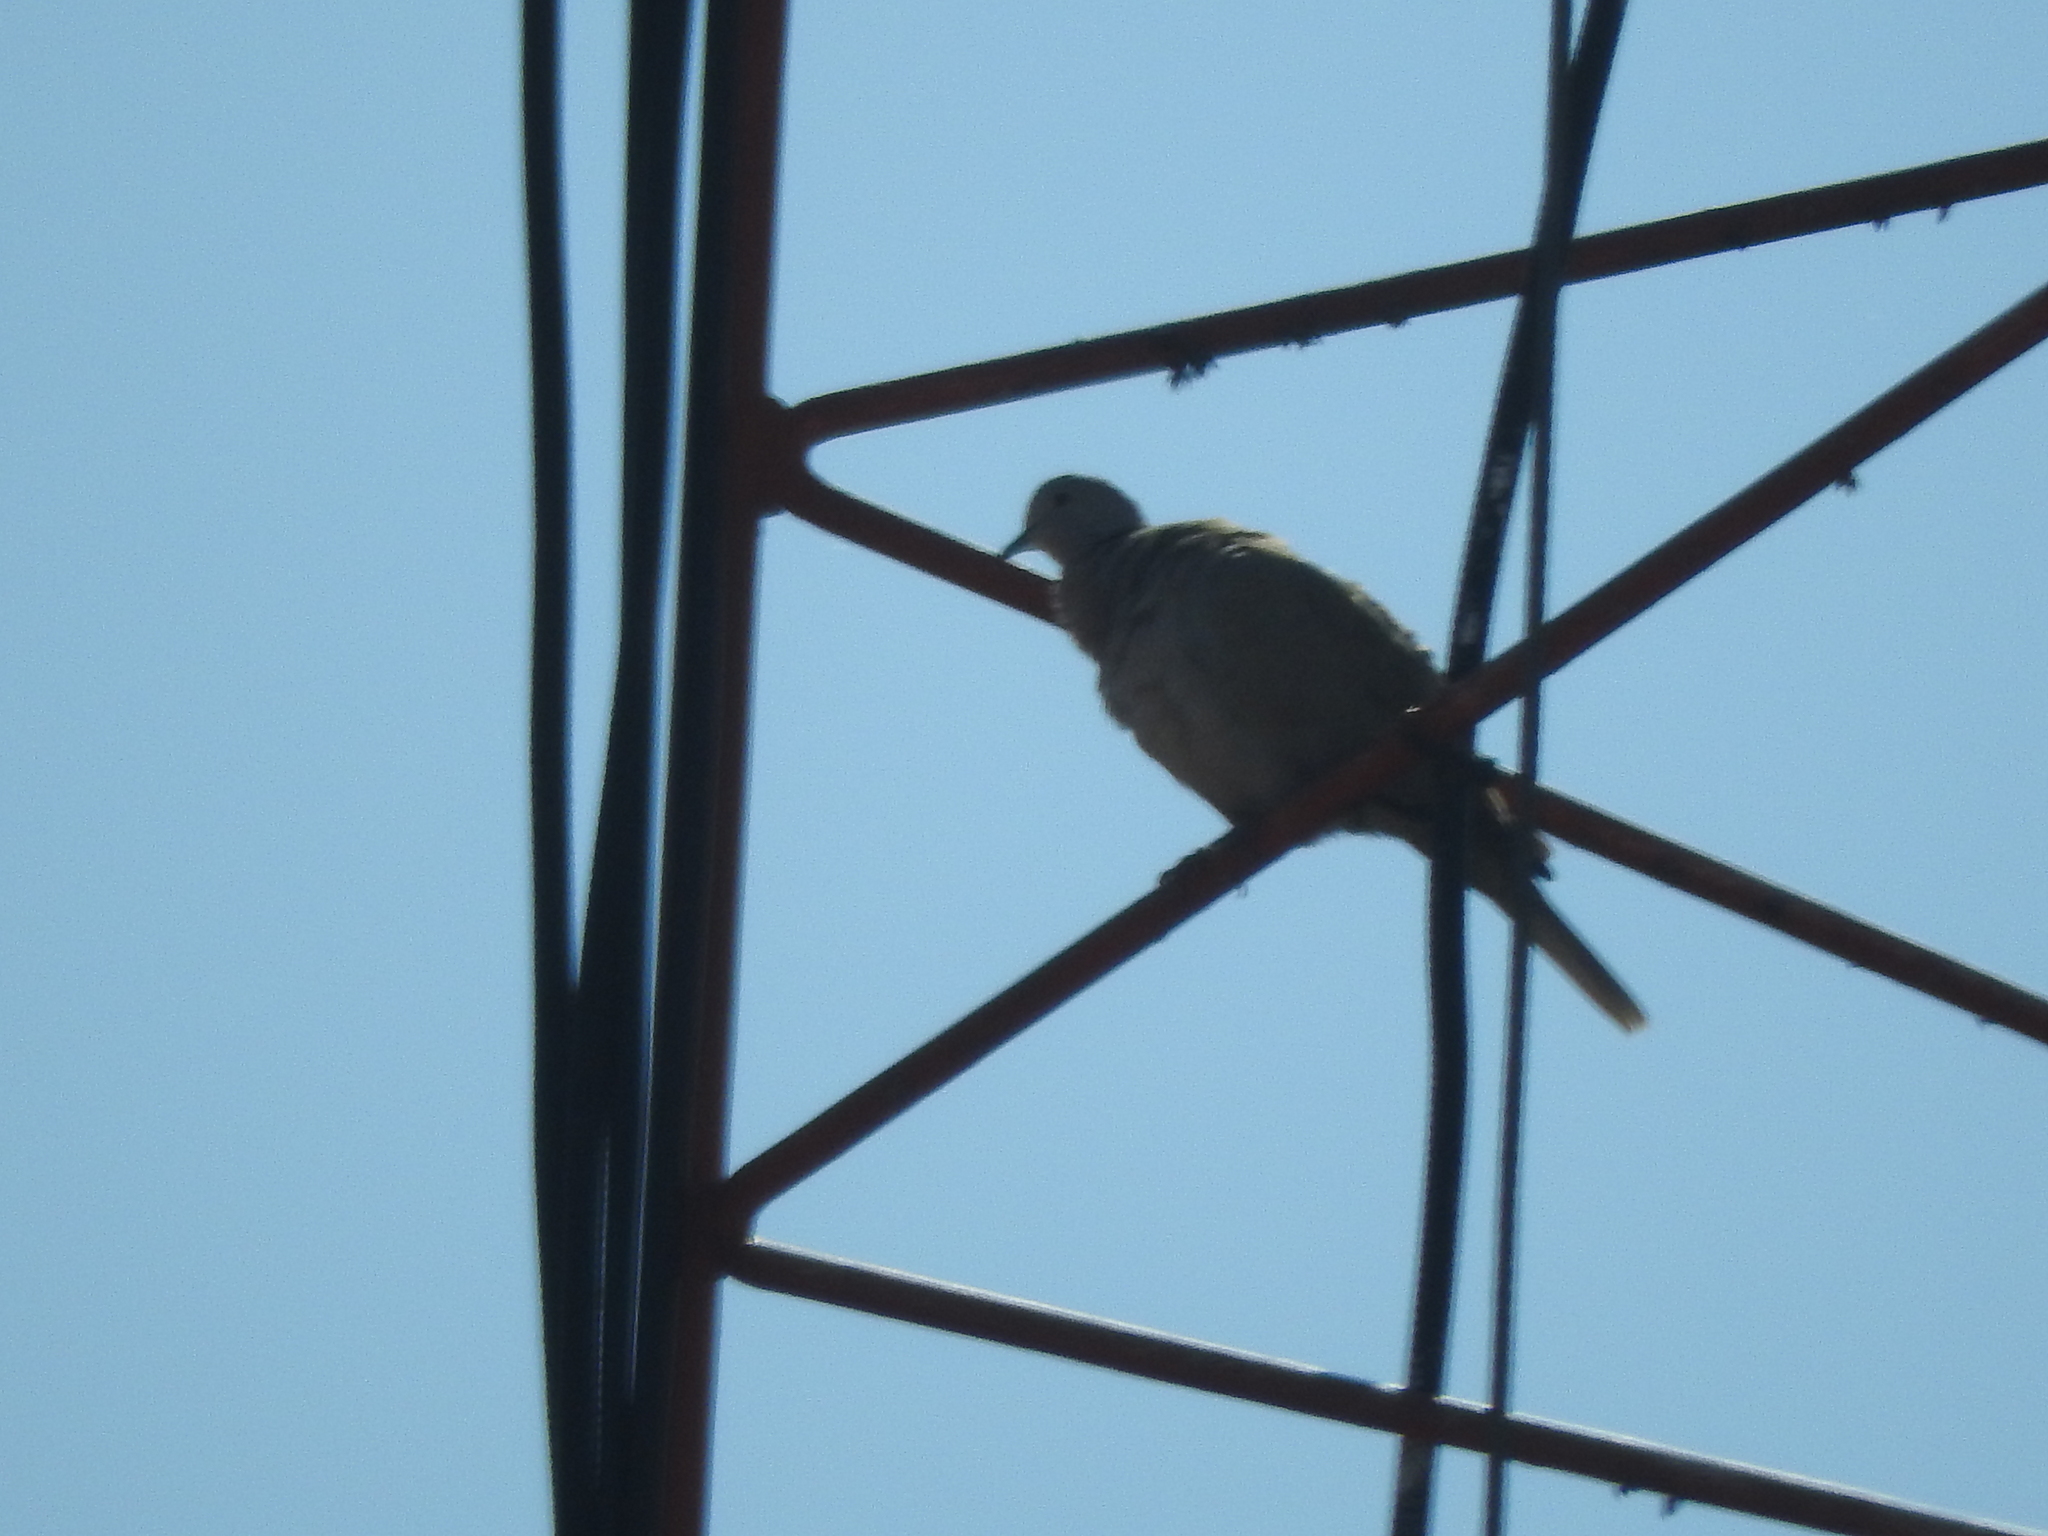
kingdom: Animalia
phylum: Chordata
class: Aves
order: Columbiformes
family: Columbidae
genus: Streptopelia
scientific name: Streptopelia decaocto
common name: Eurasian collared dove
